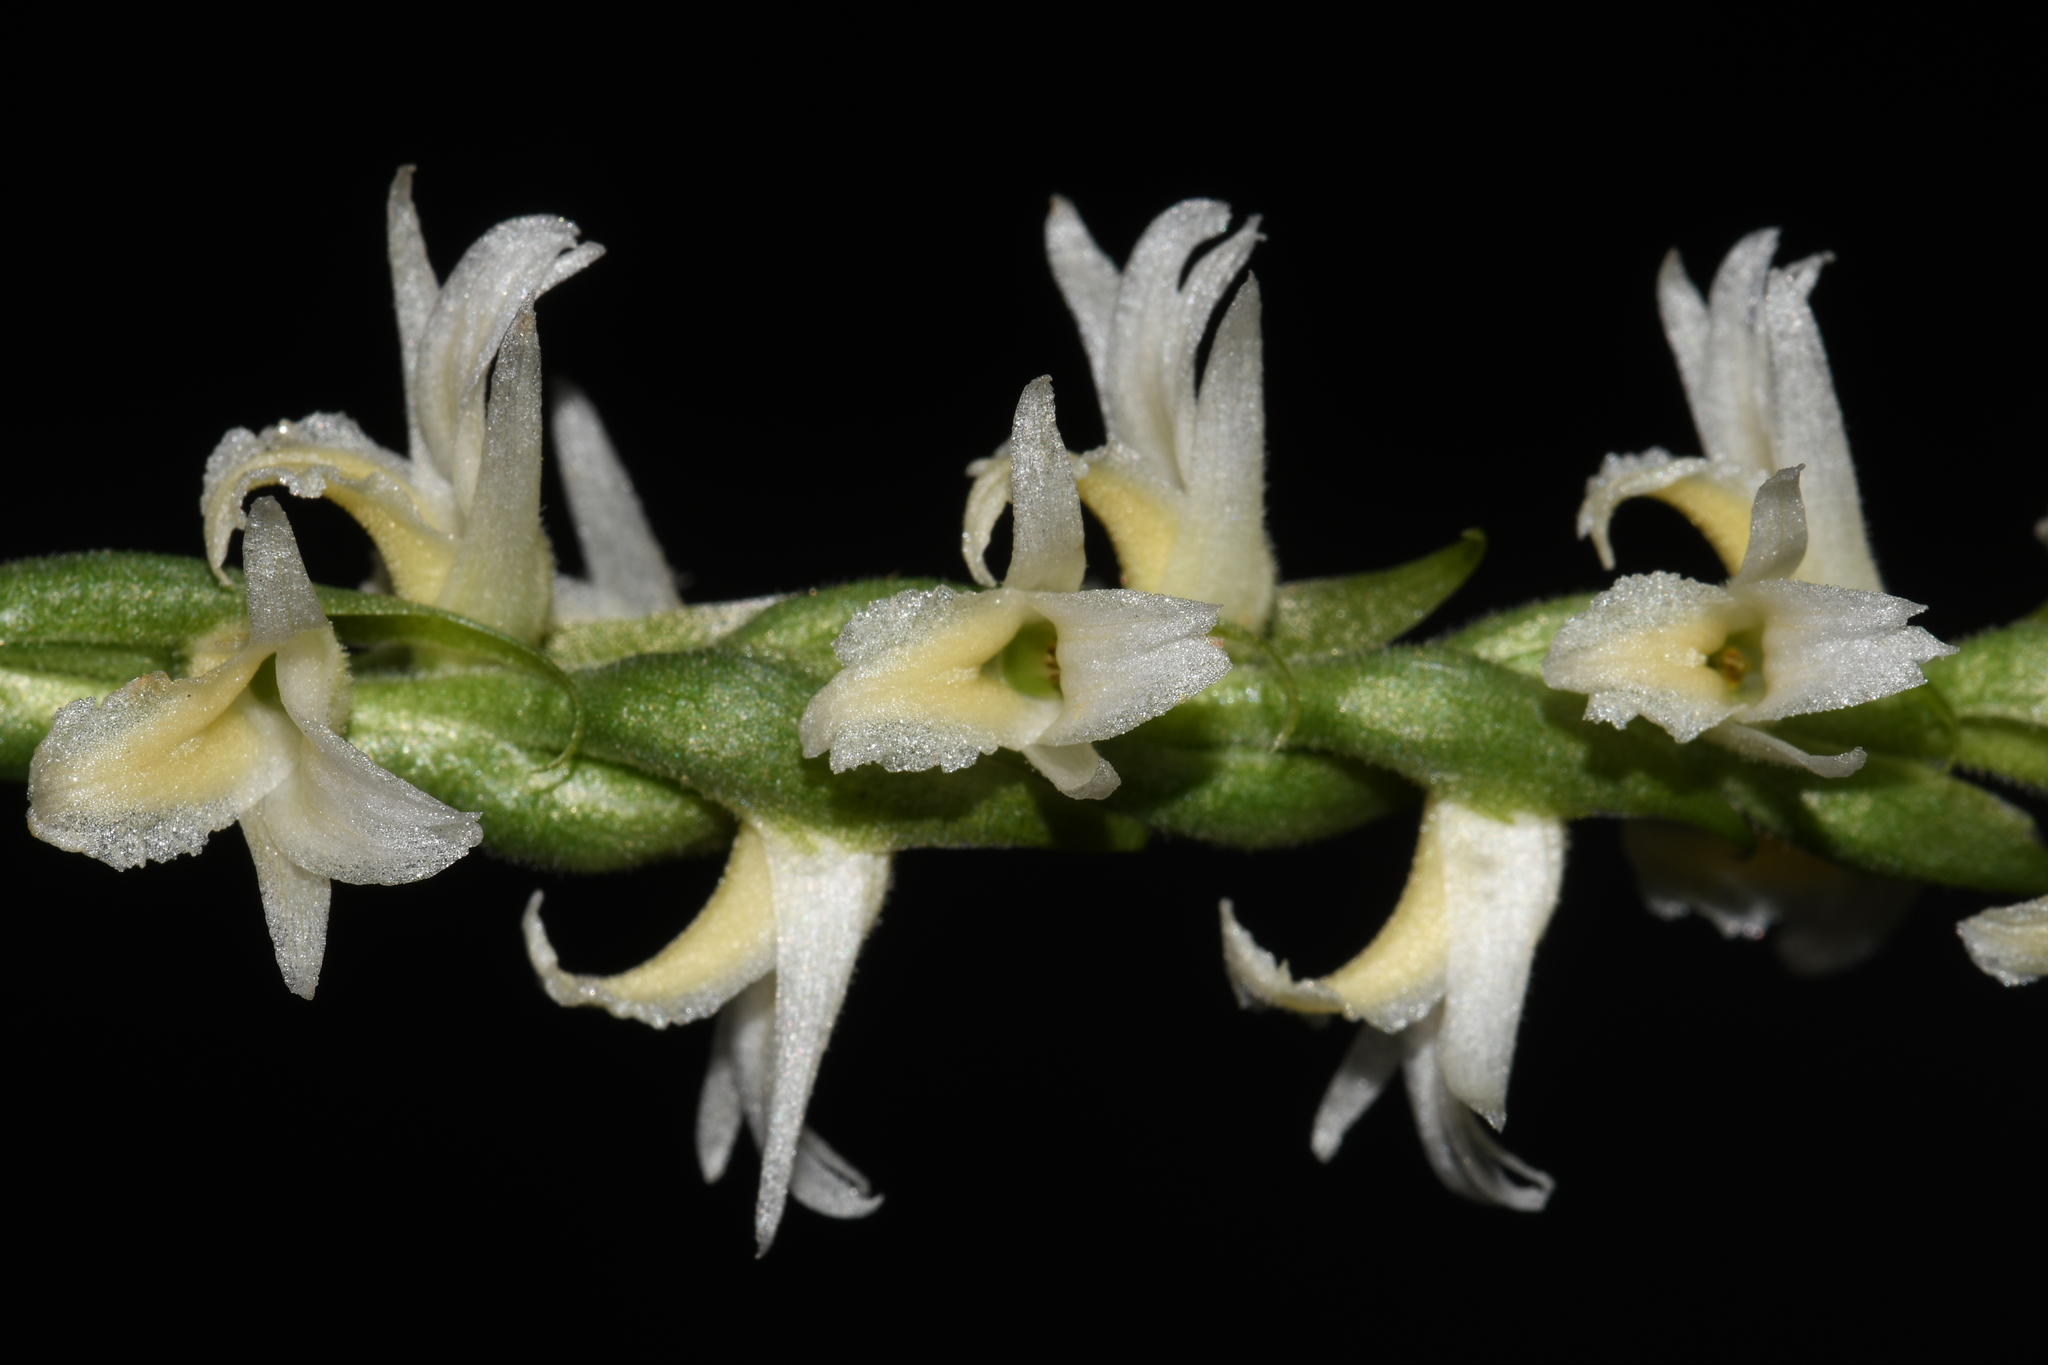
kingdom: Plantae
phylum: Tracheophyta
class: Liliopsida
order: Asparagales
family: Orchidaceae
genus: Spiranthes
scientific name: Spiranthes magnicamporum
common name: Great plains ladies'-tresses
